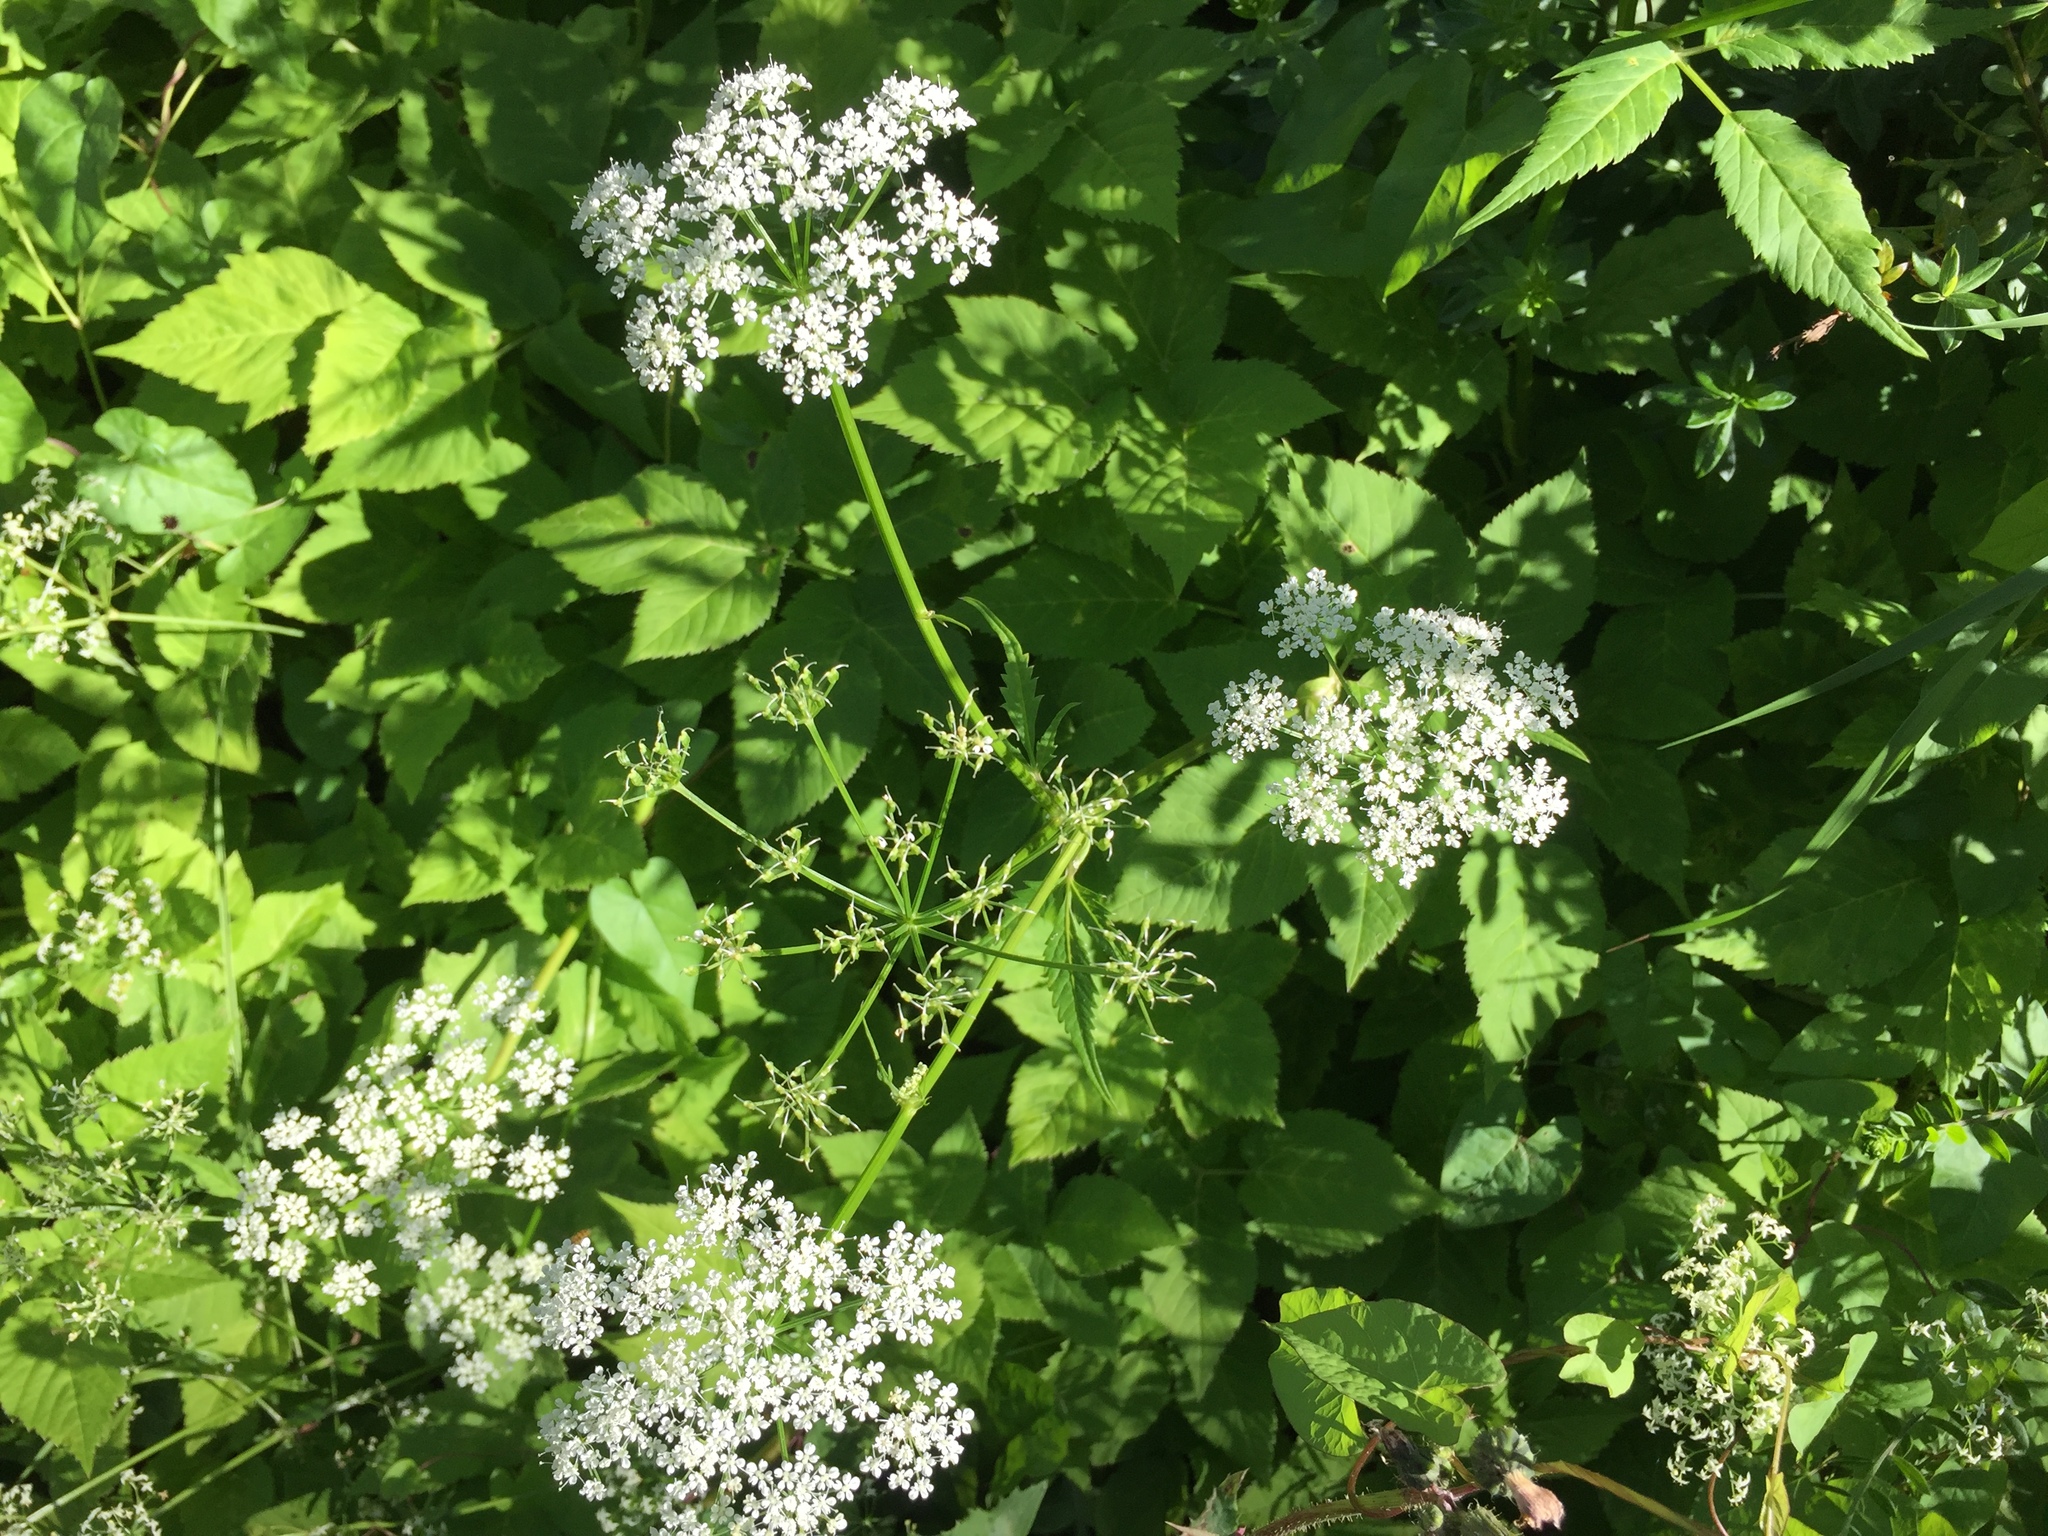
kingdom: Plantae
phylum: Tracheophyta
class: Magnoliopsida
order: Apiales
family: Apiaceae
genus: Aegopodium
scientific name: Aegopodium podagraria
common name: Ground-elder
